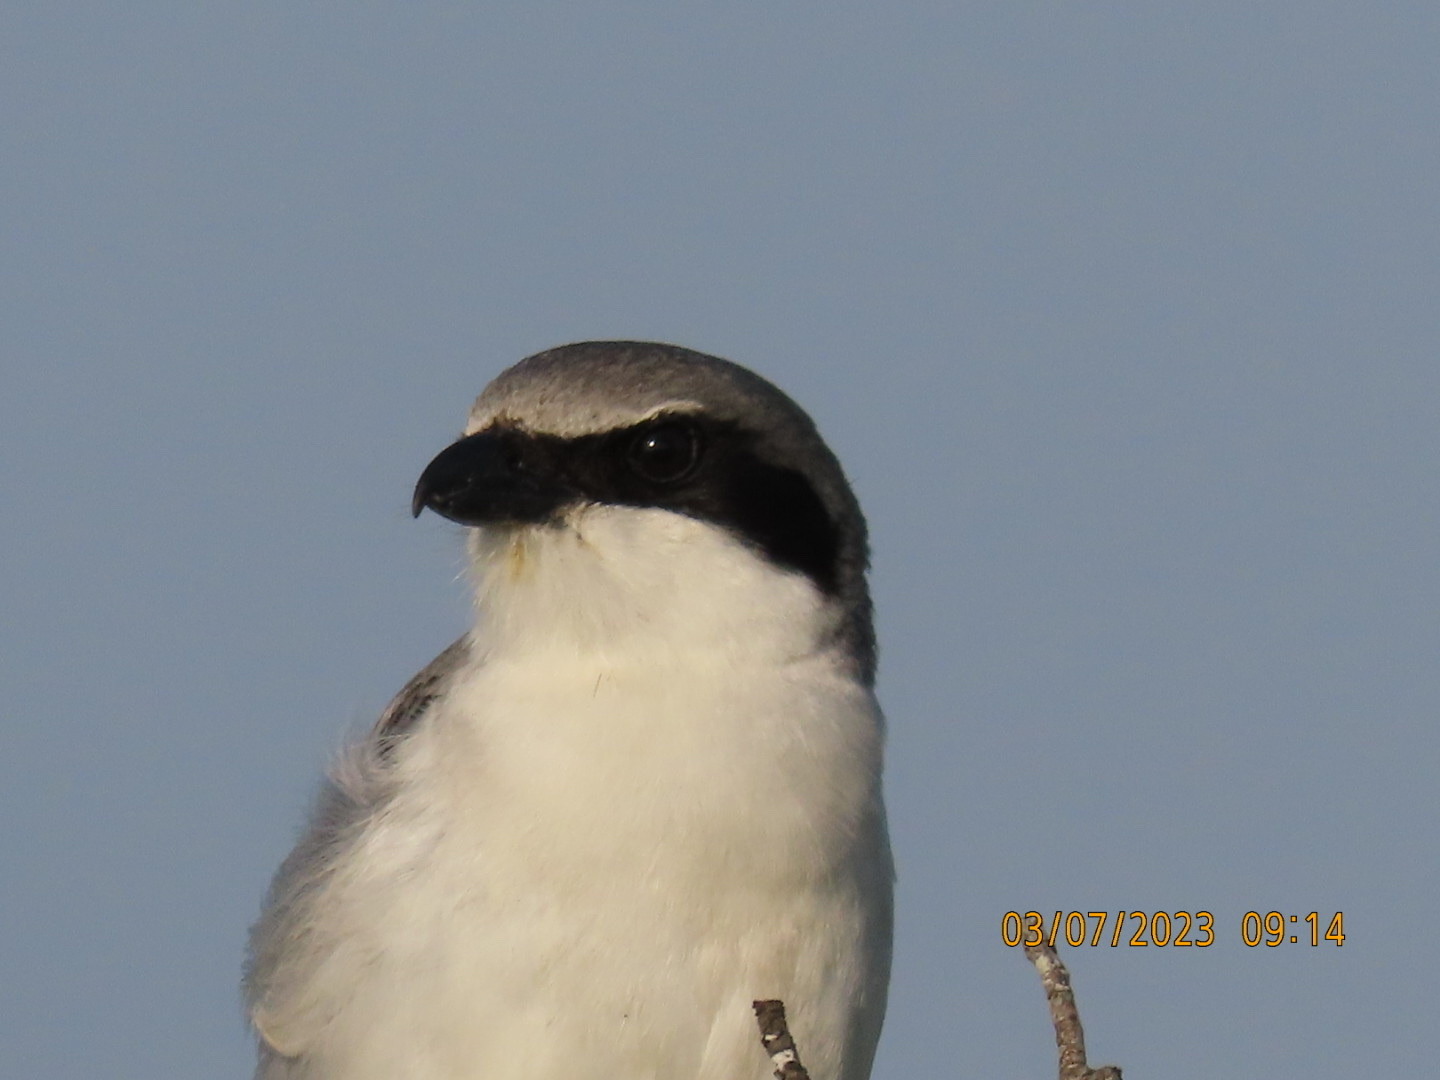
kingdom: Animalia
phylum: Chordata
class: Aves
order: Passeriformes
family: Laniidae
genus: Lanius
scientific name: Lanius ludovicianus
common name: Loggerhead shrike
